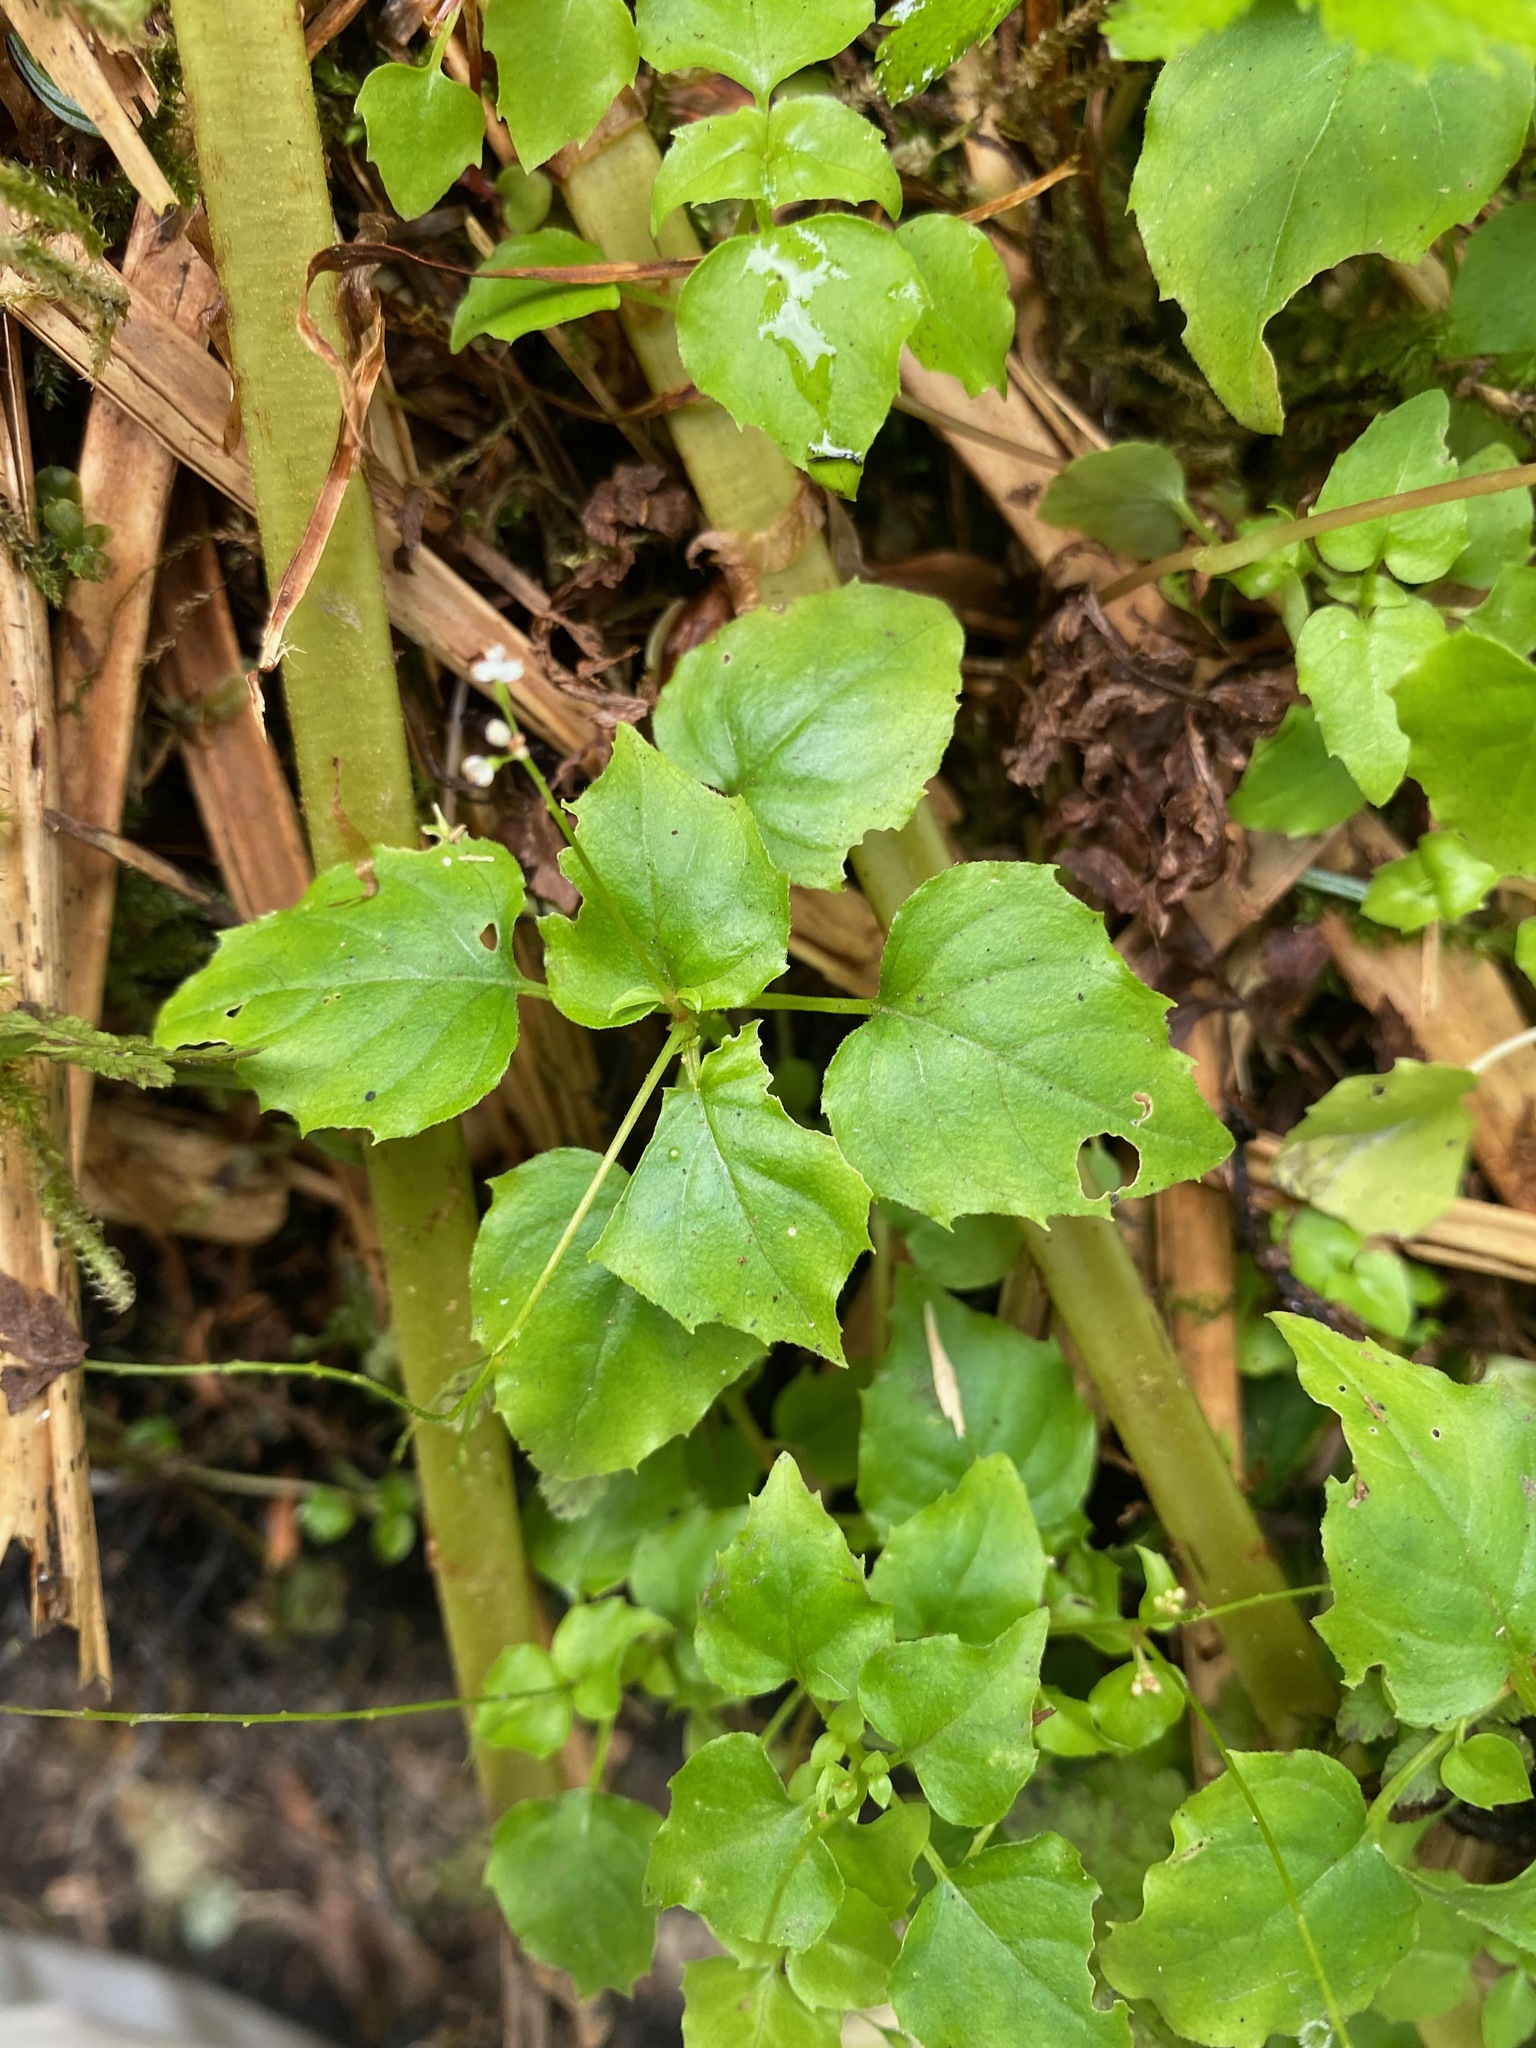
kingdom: Plantae
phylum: Tracheophyta
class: Magnoliopsida
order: Myrtales
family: Onagraceae
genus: Circaea
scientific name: Circaea alpina
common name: Alpine enchanter's-nightshade
